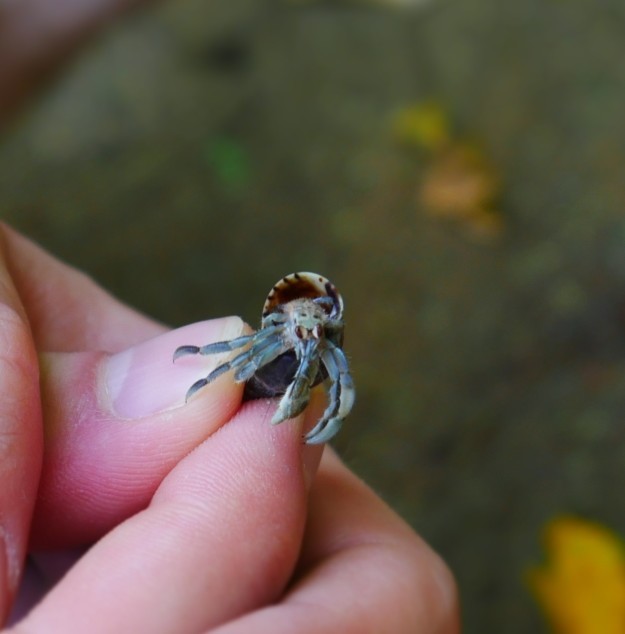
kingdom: Animalia
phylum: Arthropoda
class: Malacostraca
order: Decapoda
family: Coenobitidae
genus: Coenobita
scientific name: Coenobita compressus
